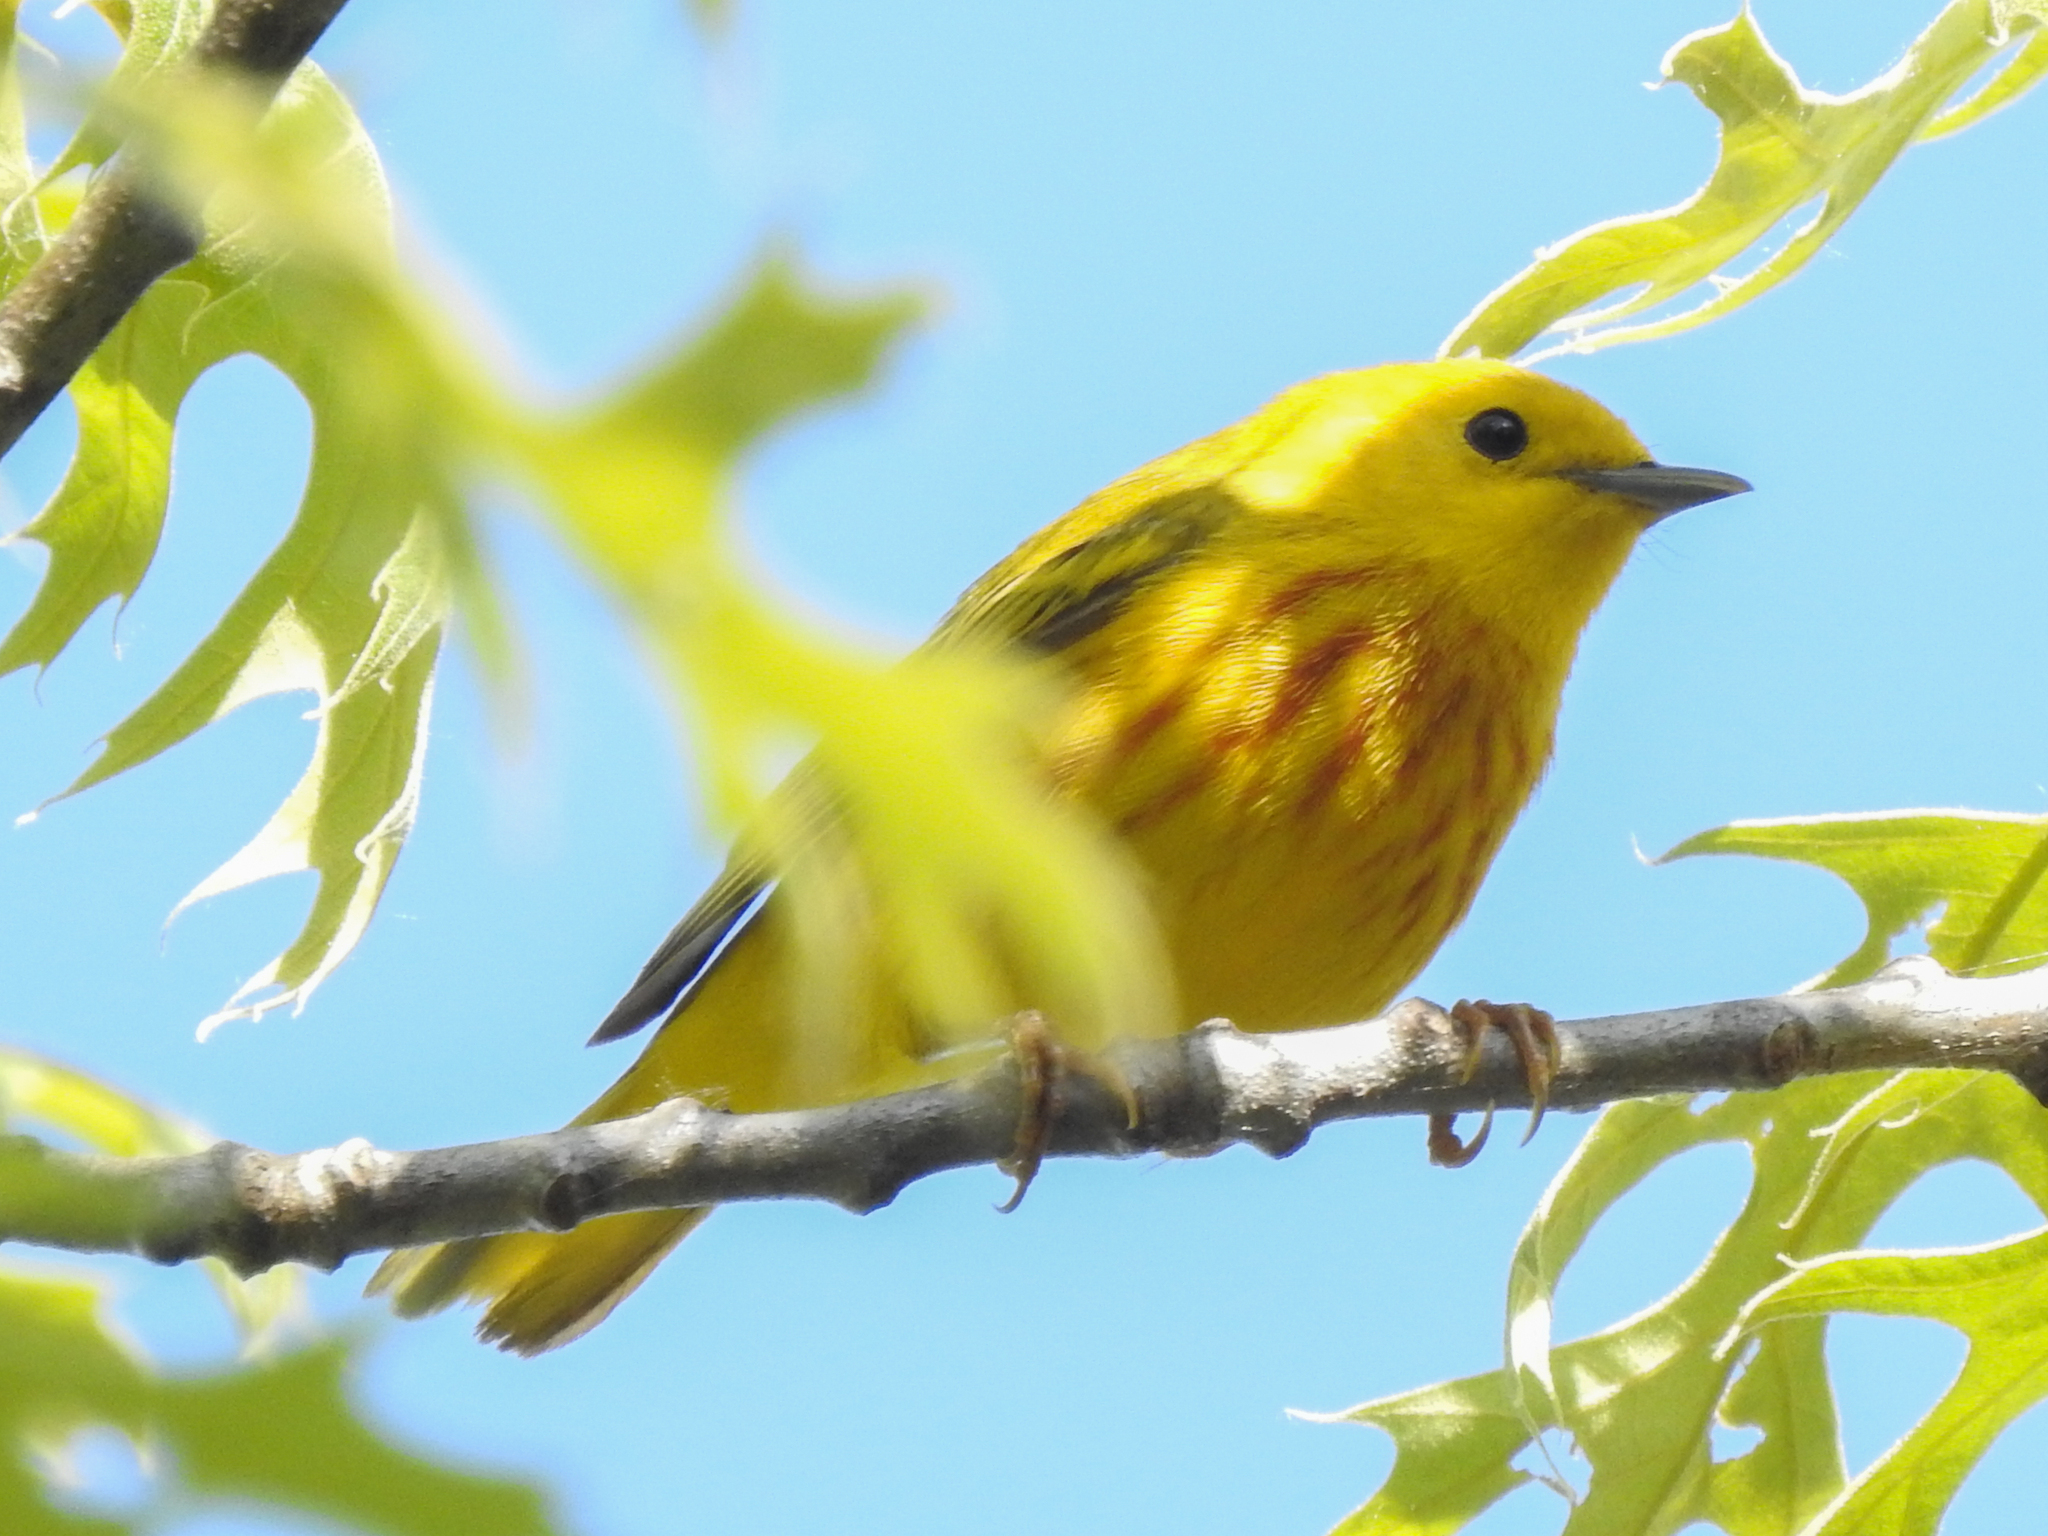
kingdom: Animalia
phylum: Chordata
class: Aves
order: Passeriformes
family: Parulidae
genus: Setophaga
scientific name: Setophaga petechia
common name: Yellow warbler
